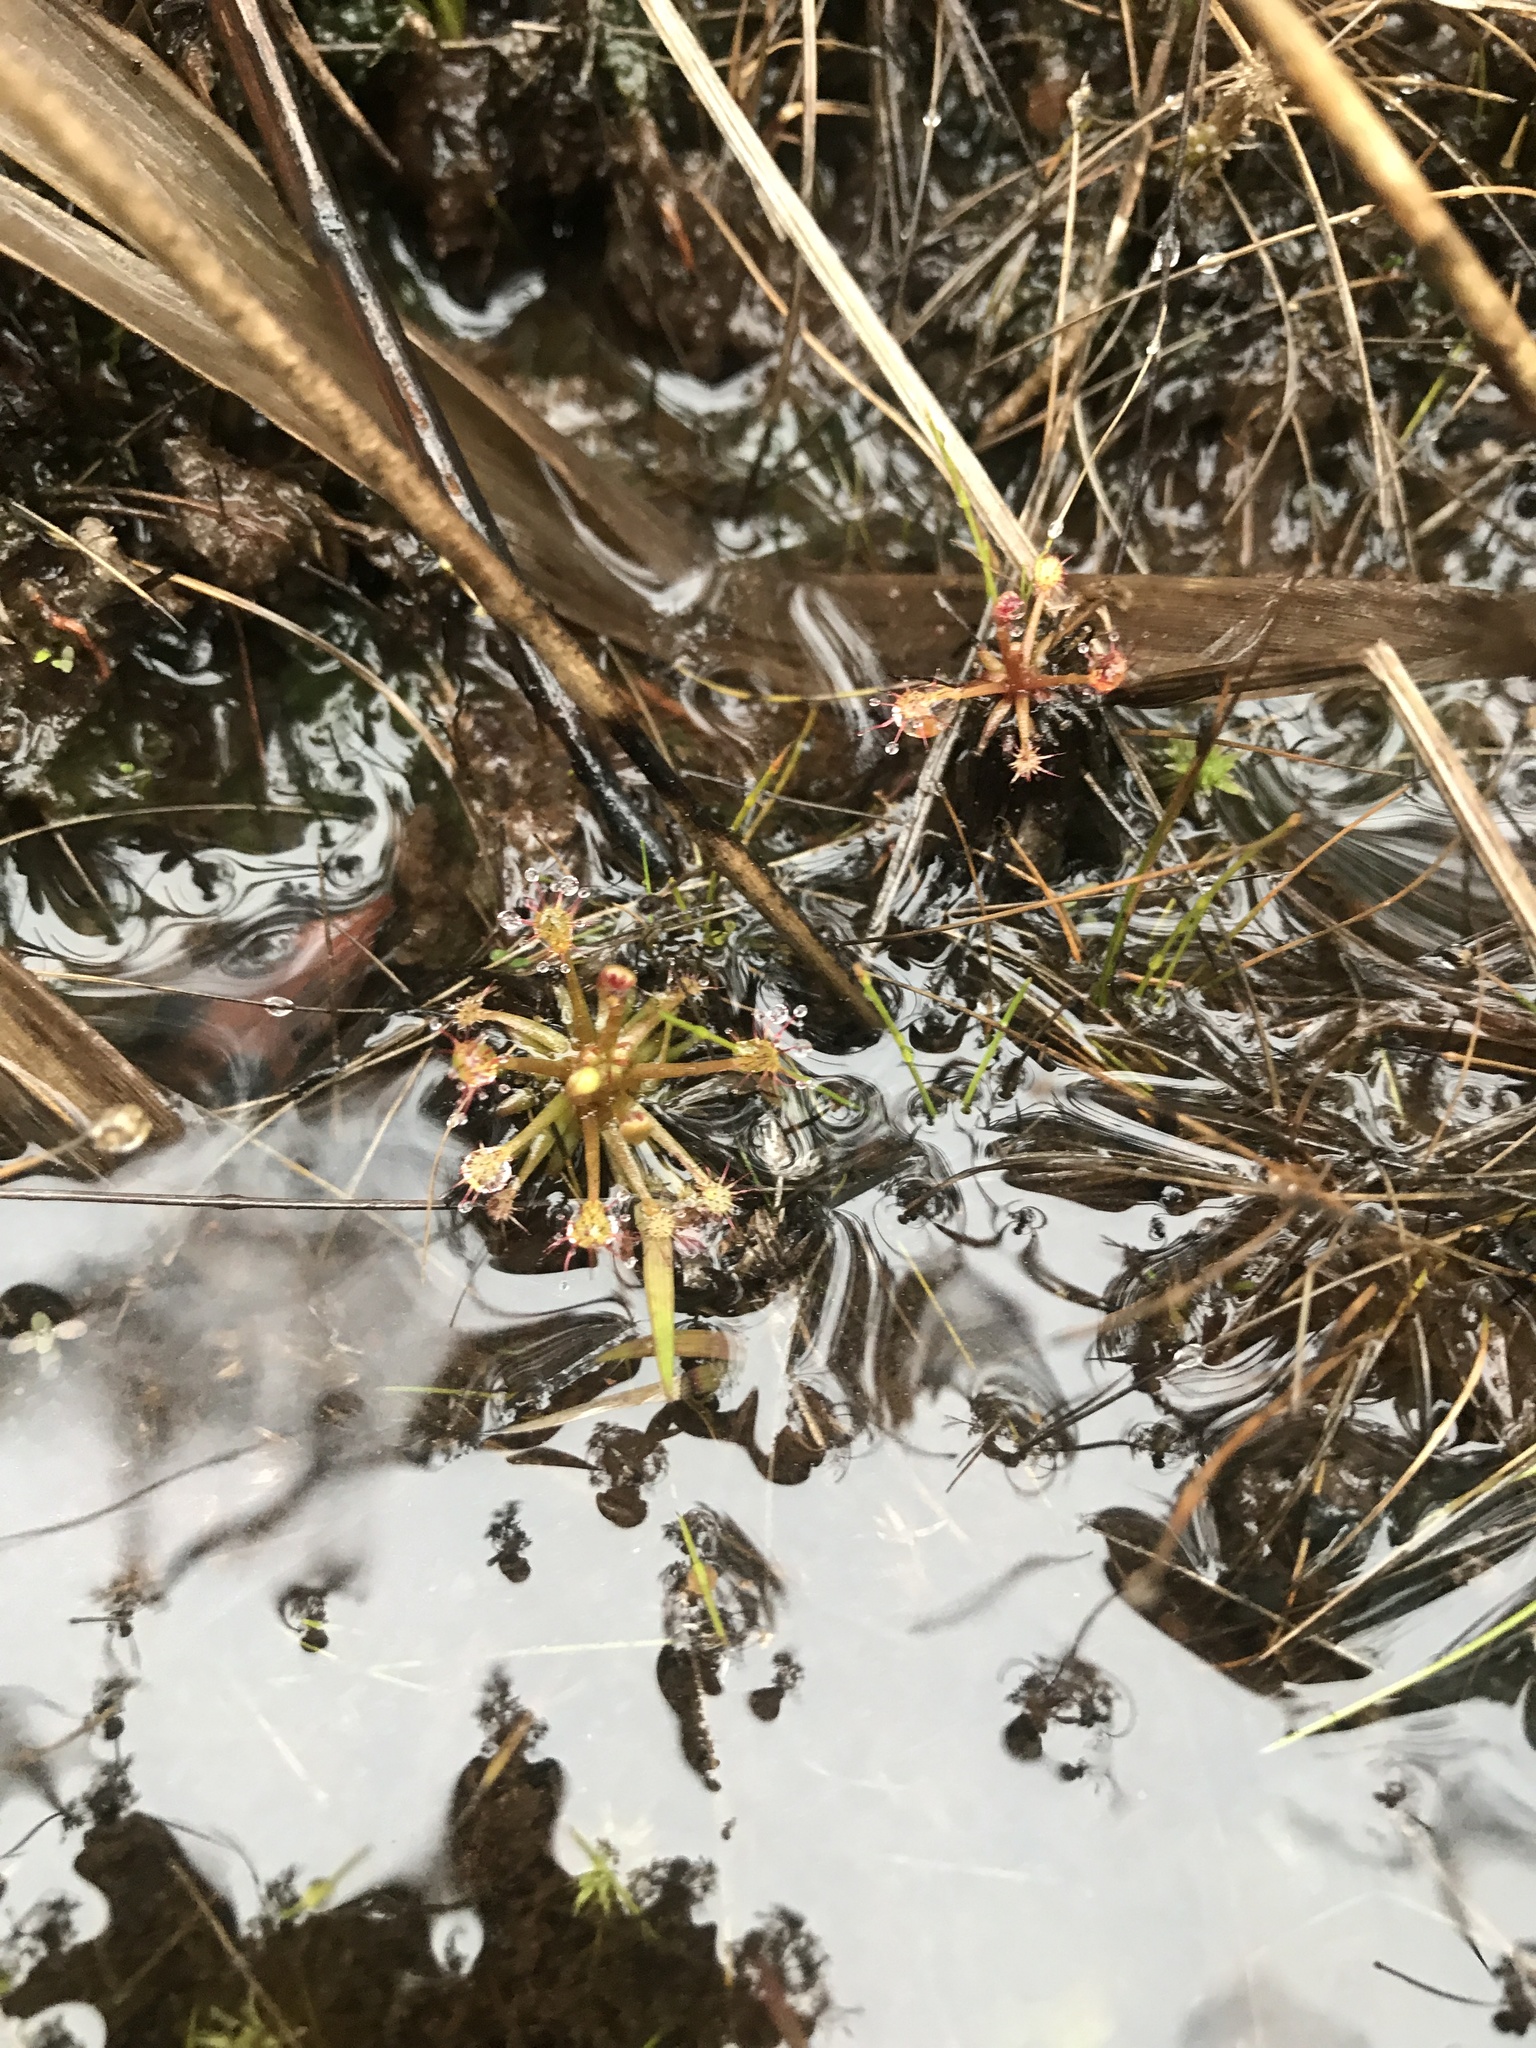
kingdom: Plantae
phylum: Tracheophyta
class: Magnoliopsida
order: Caryophyllales
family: Droseraceae
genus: Drosera
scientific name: Drosera intermedia
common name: Oblong-leaved sundew
